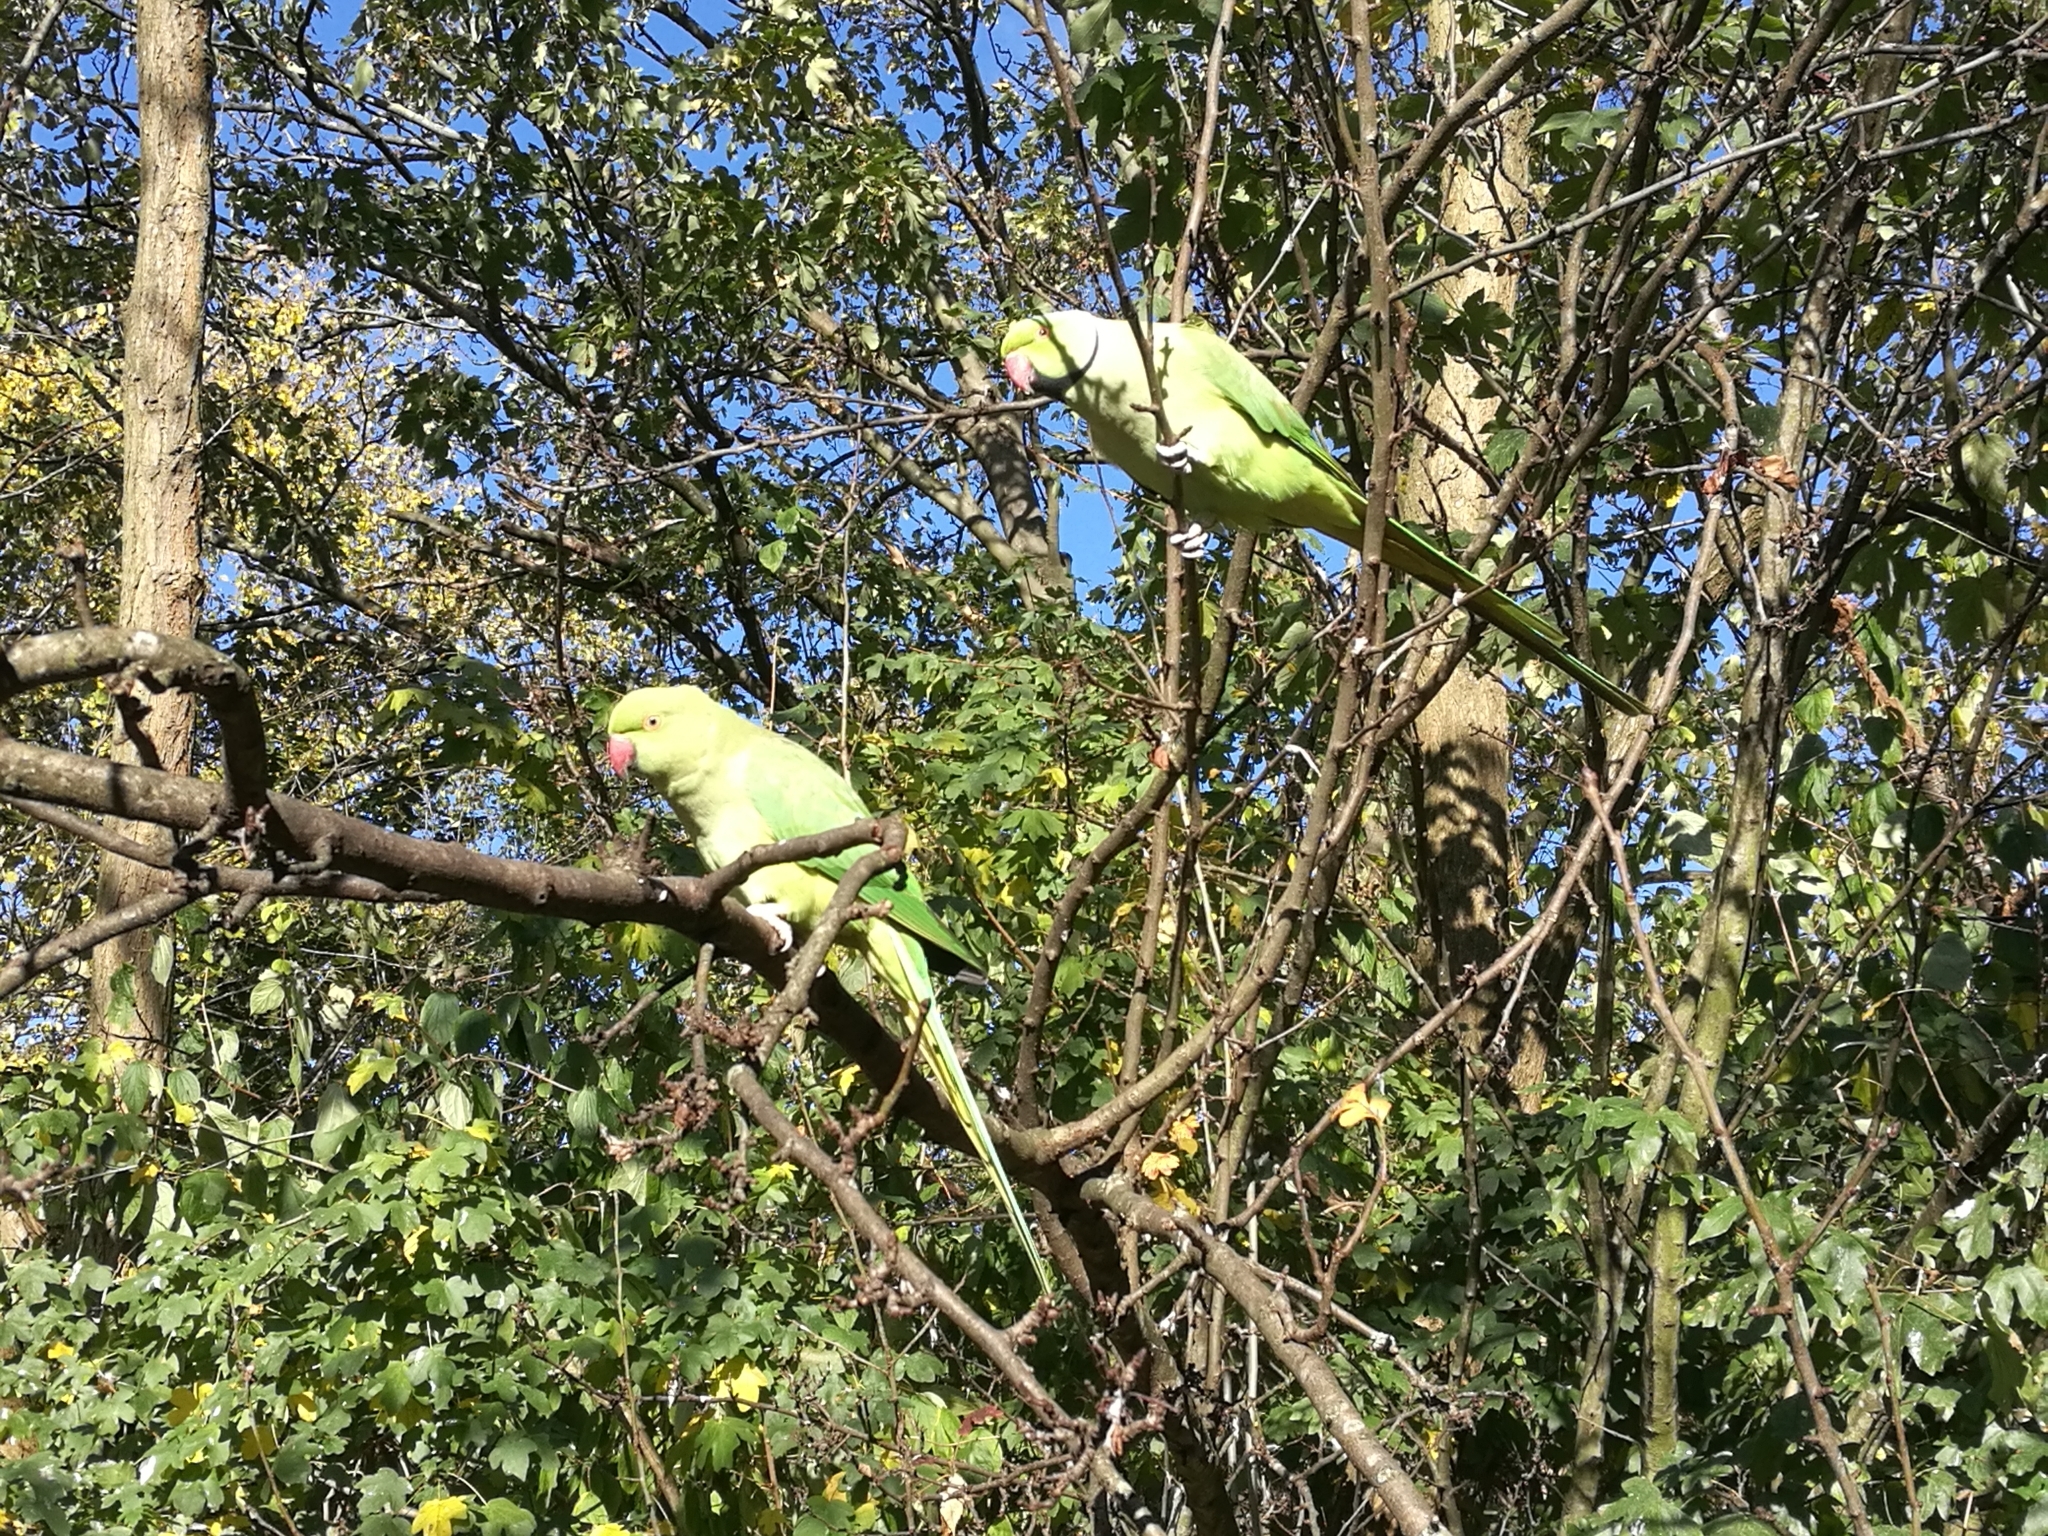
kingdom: Animalia
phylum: Chordata
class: Aves
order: Psittaciformes
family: Psittacidae
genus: Psittacula
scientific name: Psittacula krameri
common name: Rose-ringed parakeet
